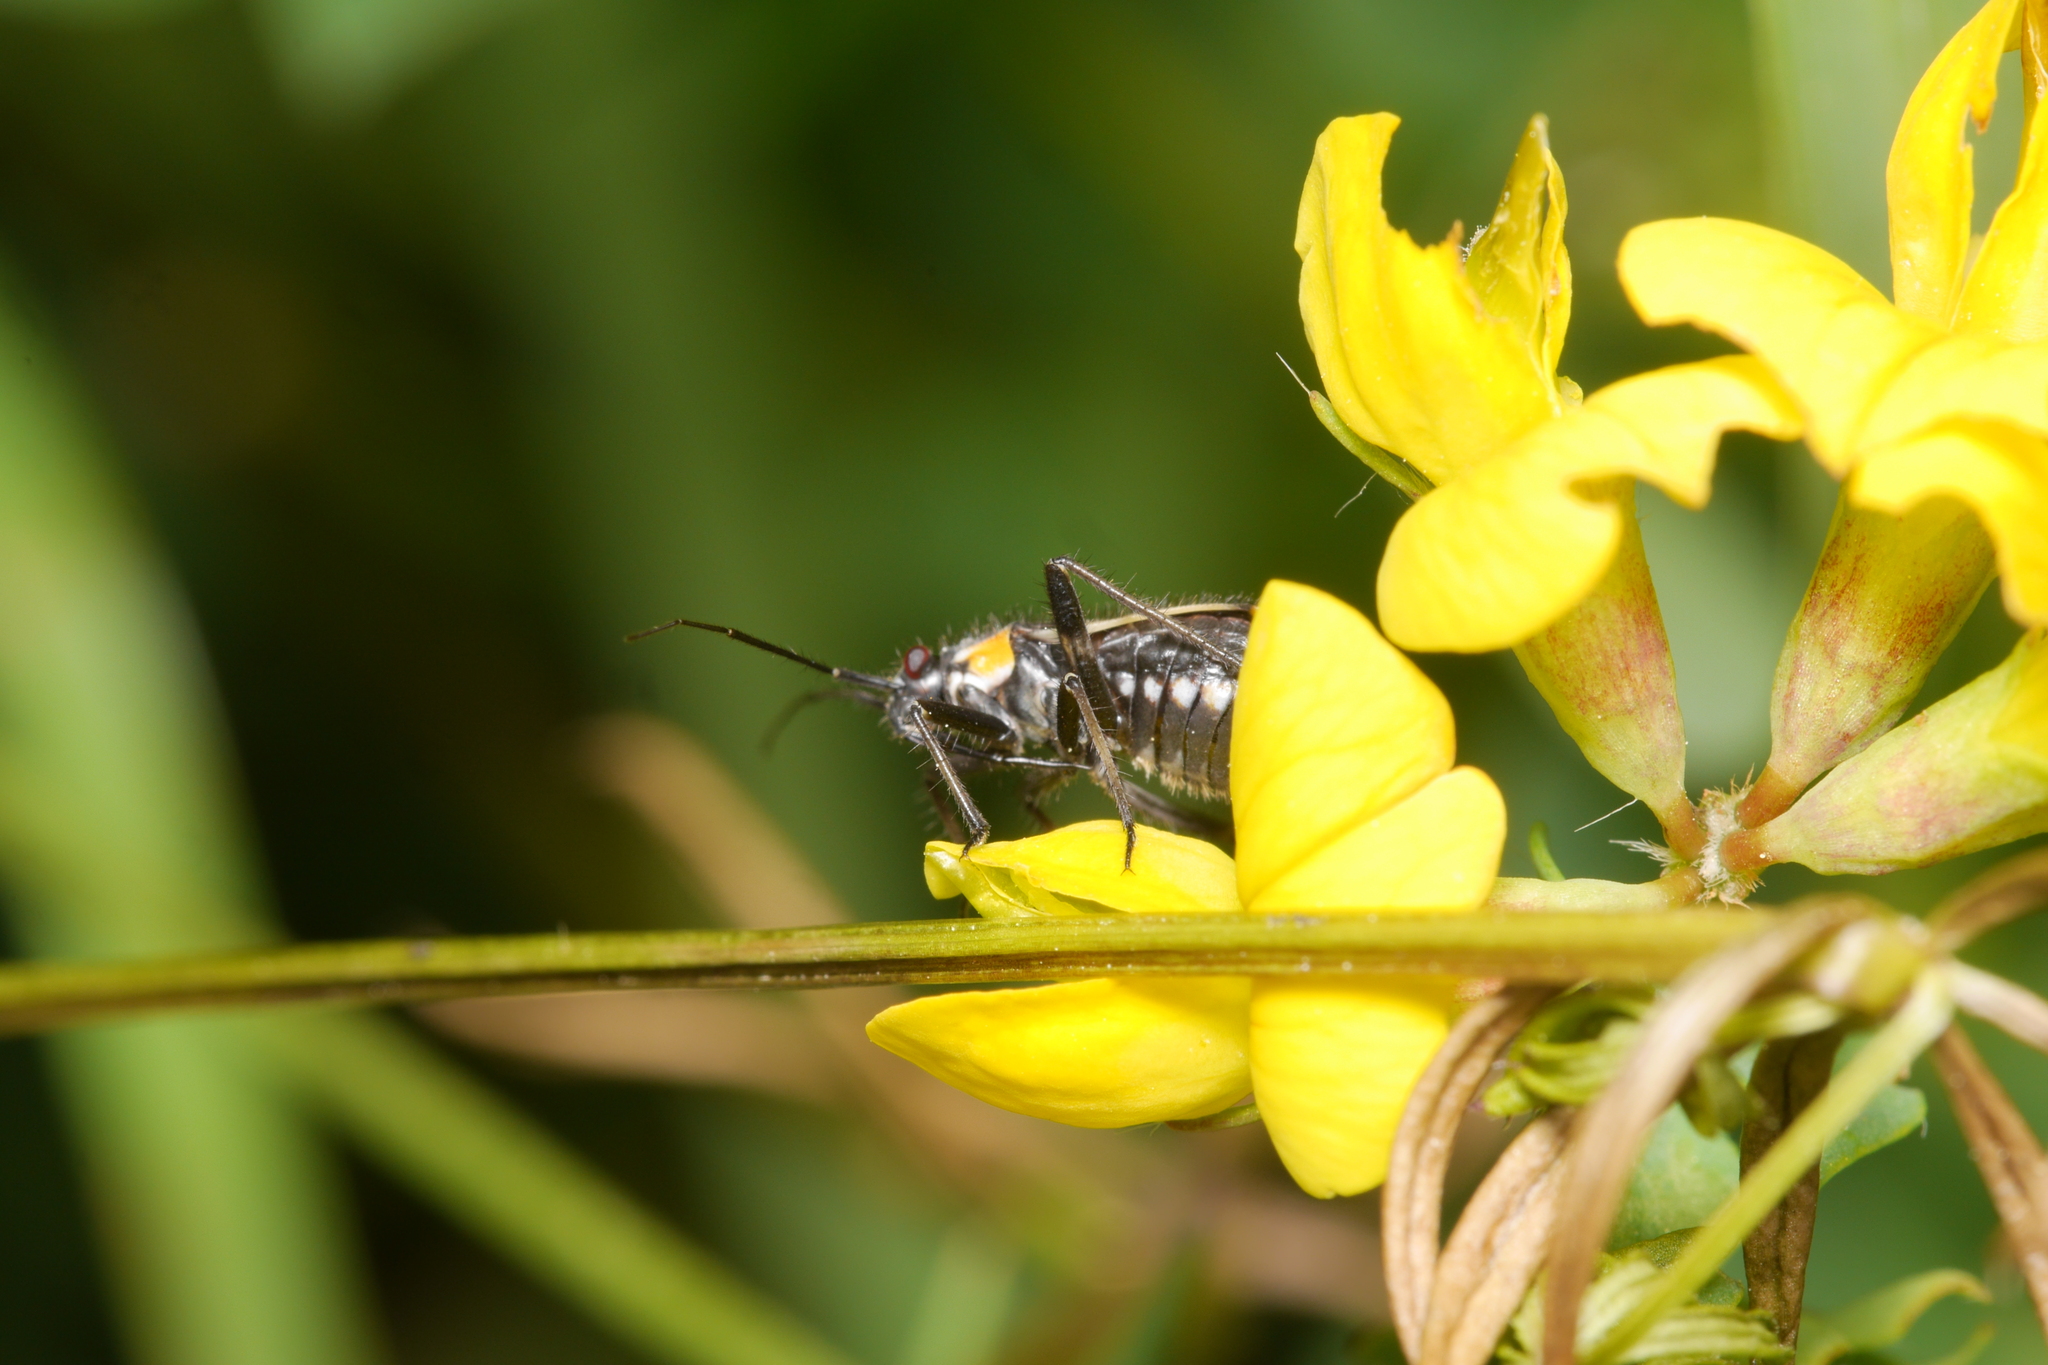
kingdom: Animalia
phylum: Arthropoda
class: Insecta
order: Hemiptera
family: Miridae
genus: Capsodes
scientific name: Capsodes gothicus
